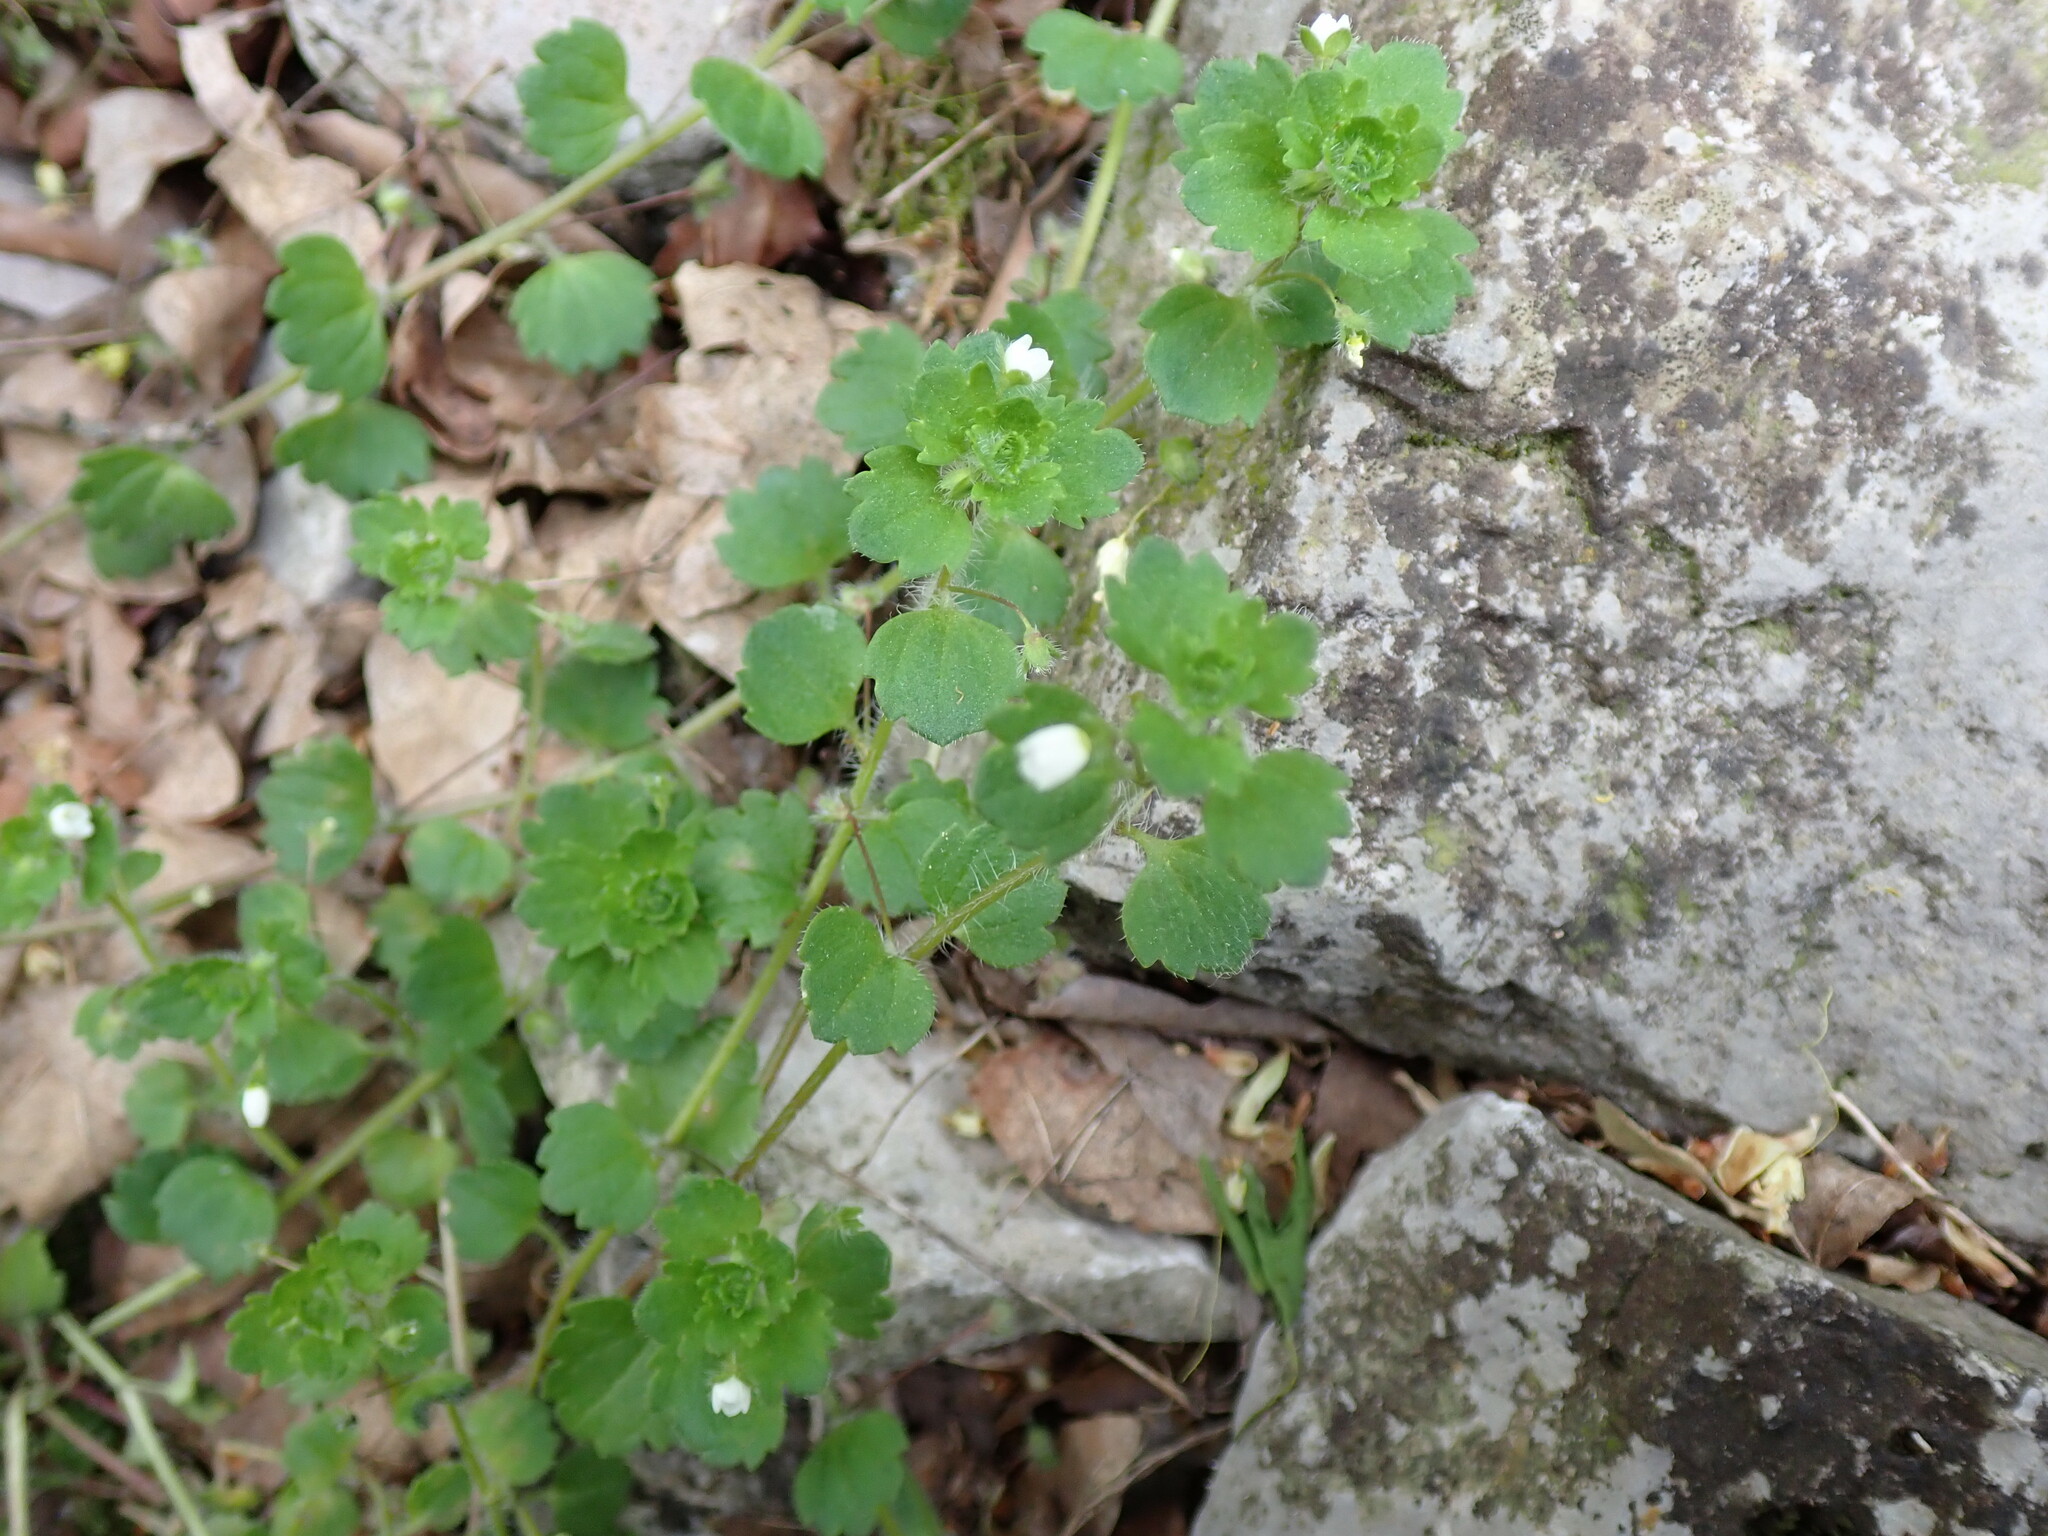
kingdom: Plantae
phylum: Tracheophyta
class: Magnoliopsida
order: Lamiales
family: Plantaginaceae
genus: Veronica
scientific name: Veronica cymbalaria
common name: Pale speedwell
